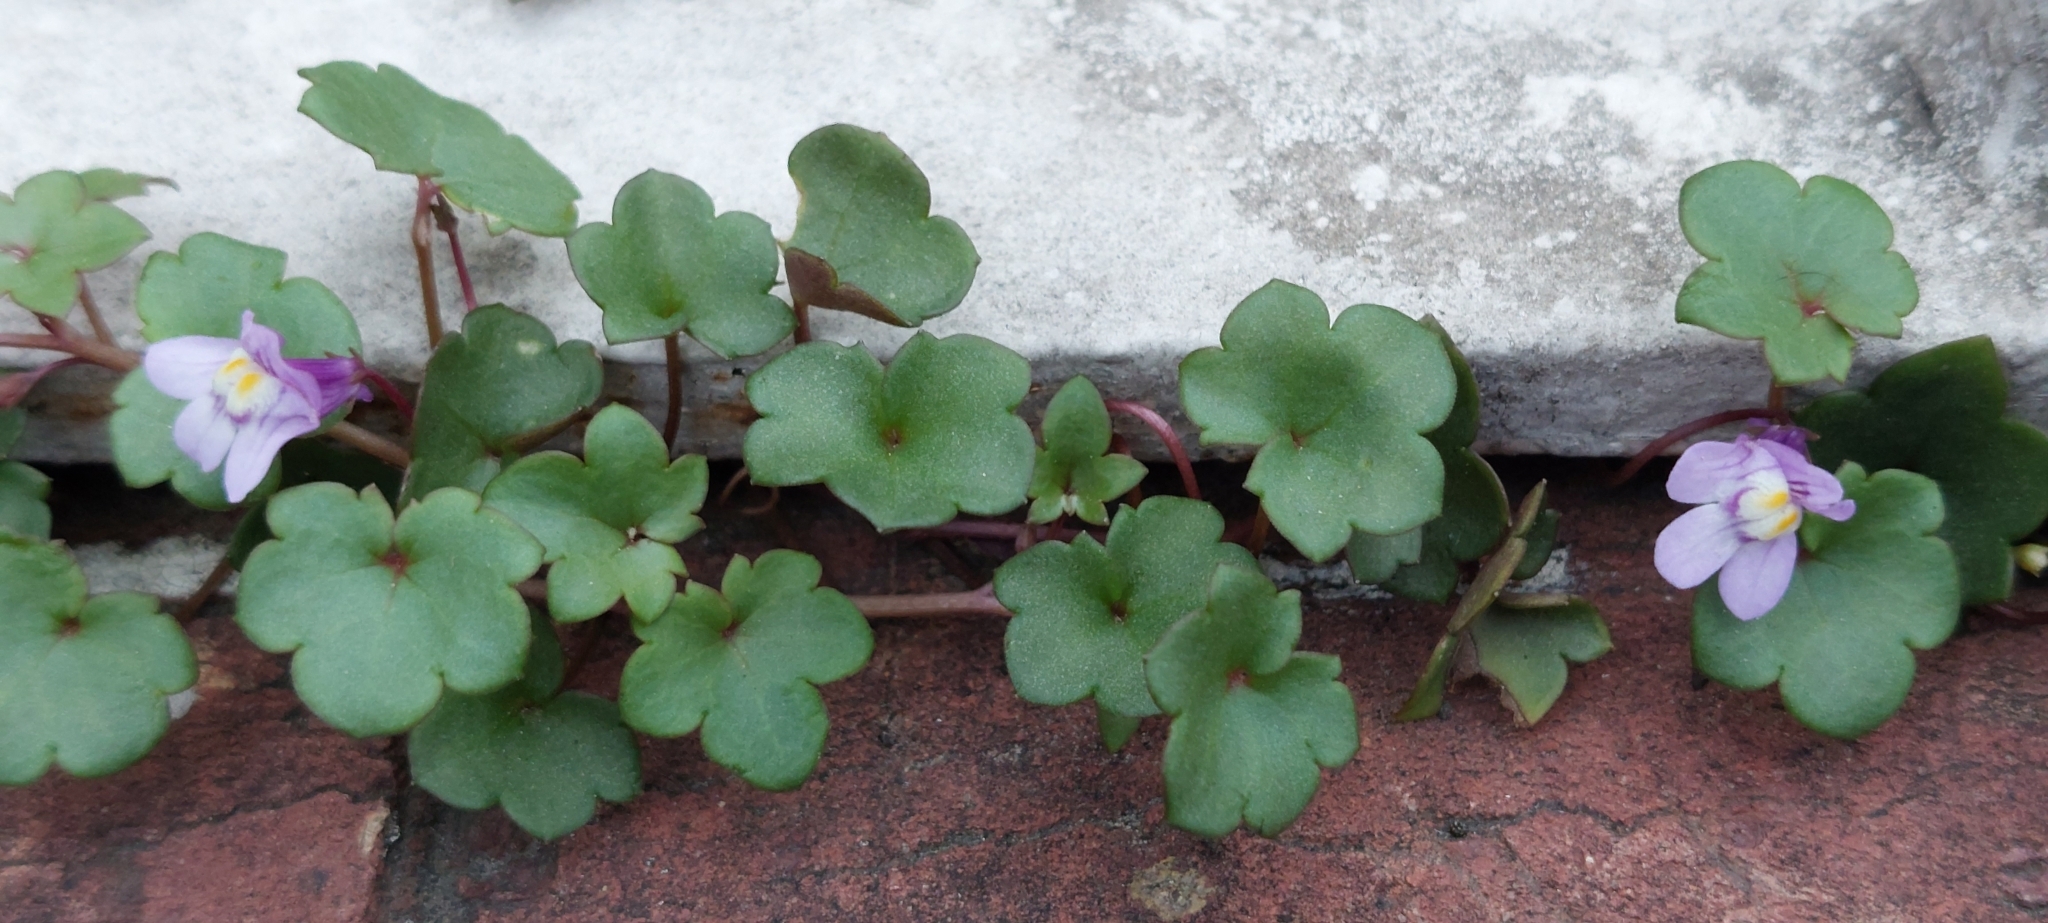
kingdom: Plantae
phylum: Tracheophyta
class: Magnoliopsida
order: Lamiales
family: Plantaginaceae
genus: Cymbalaria
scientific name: Cymbalaria muralis
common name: Ivy-leaved toadflax
